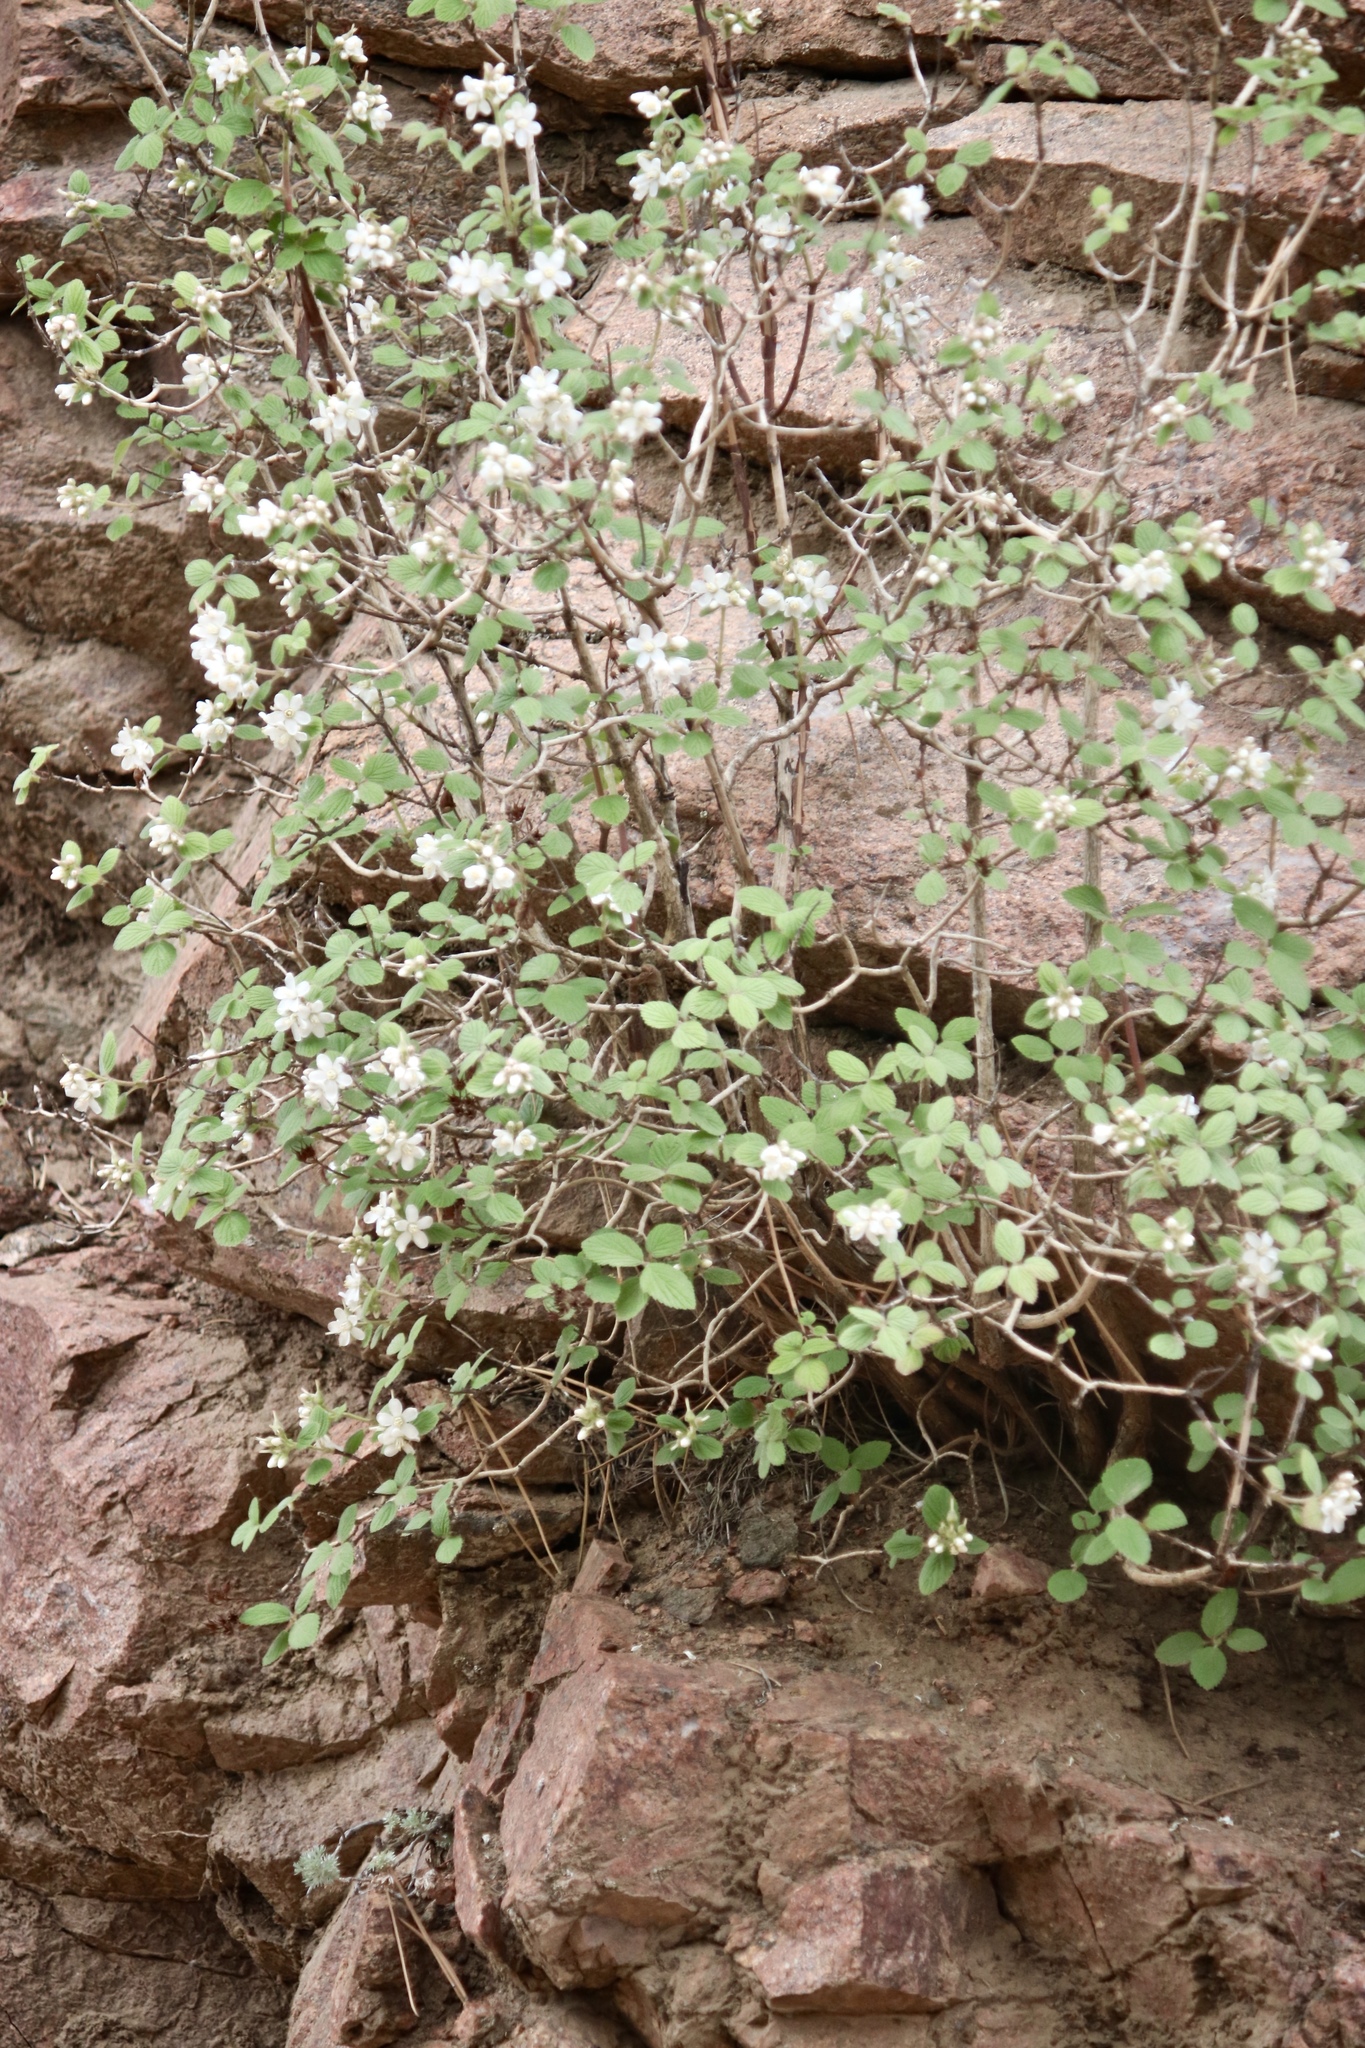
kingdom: Plantae
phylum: Tracheophyta
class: Magnoliopsida
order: Cornales
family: Hydrangeaceae
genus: Jamesia
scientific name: Jamesia americana
